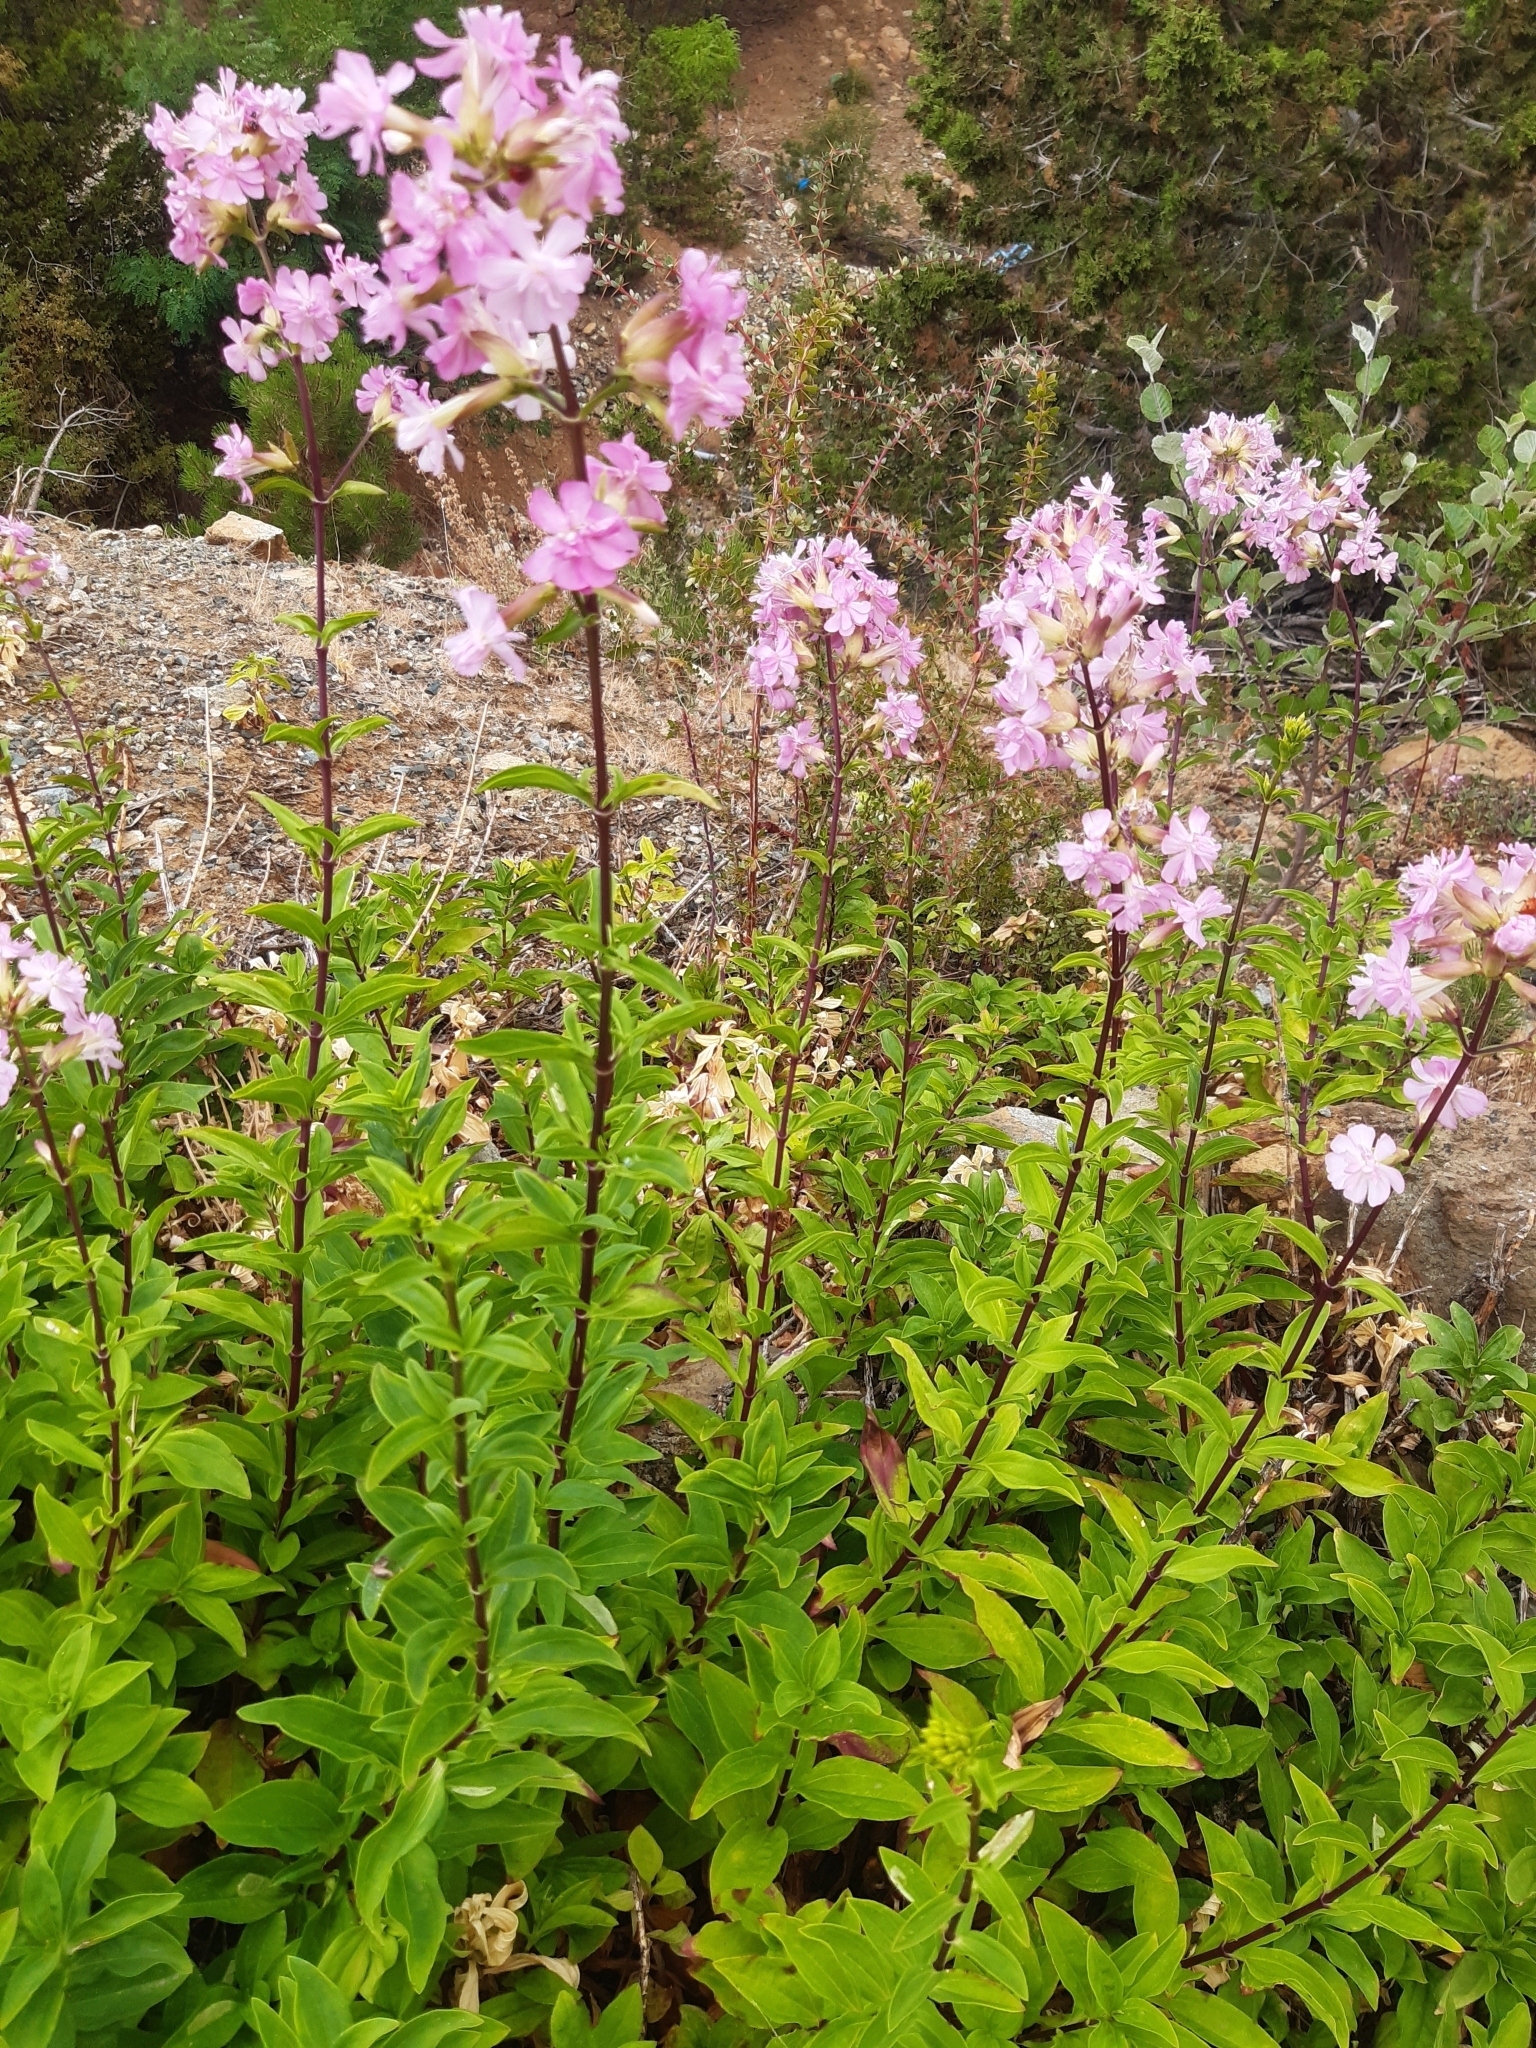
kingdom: Plantae
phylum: Tracheophyta
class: Magnoliopsida
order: Caryophyllales
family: Caryophyllaceae
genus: Saponaria
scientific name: Saponaria officinalis
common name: Soapwort
